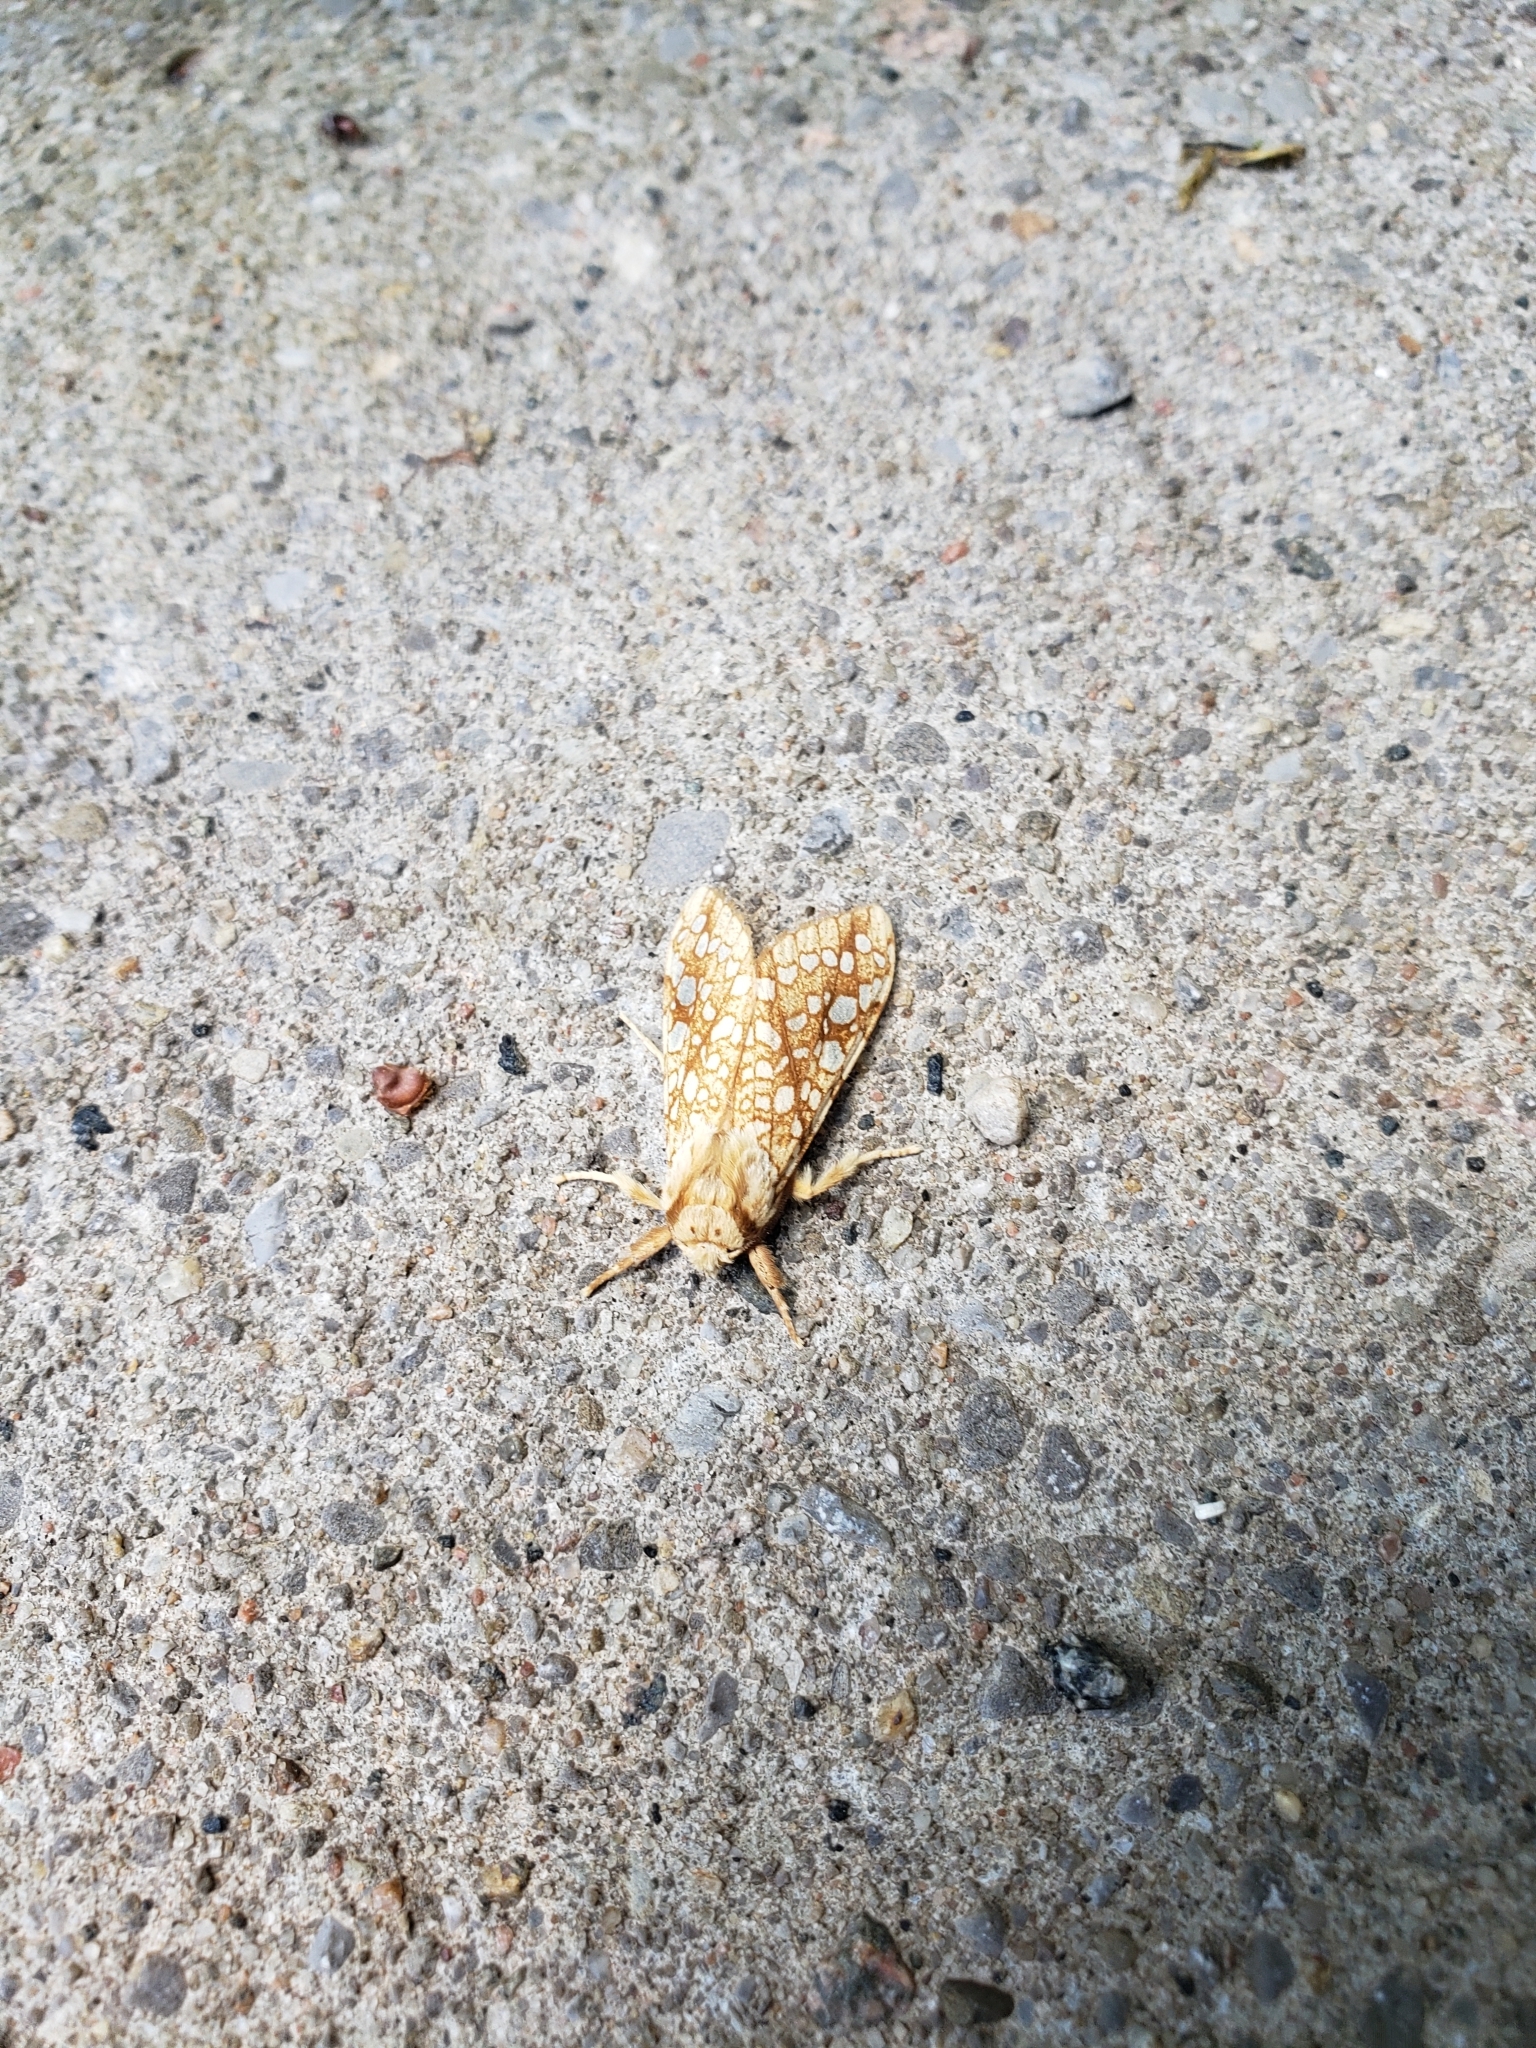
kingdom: Animalia
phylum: Arthropoda
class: Insecta
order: Lepidoptera
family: Erebidae
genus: Lophocampa
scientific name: Lophocampa caryae
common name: Hickory tussock moth
